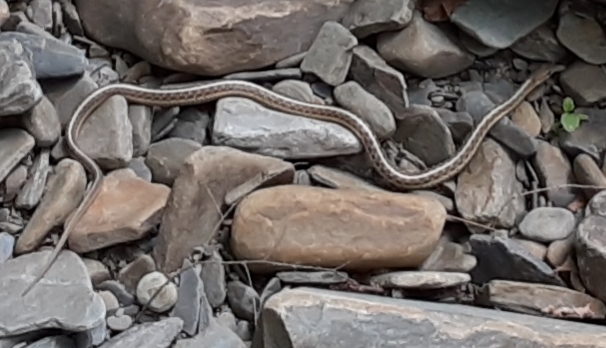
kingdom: Animalia
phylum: Chordata
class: Squamata
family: Colubridae
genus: Thamnophis
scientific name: Thamnophis sirtalis
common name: Common garter snake
